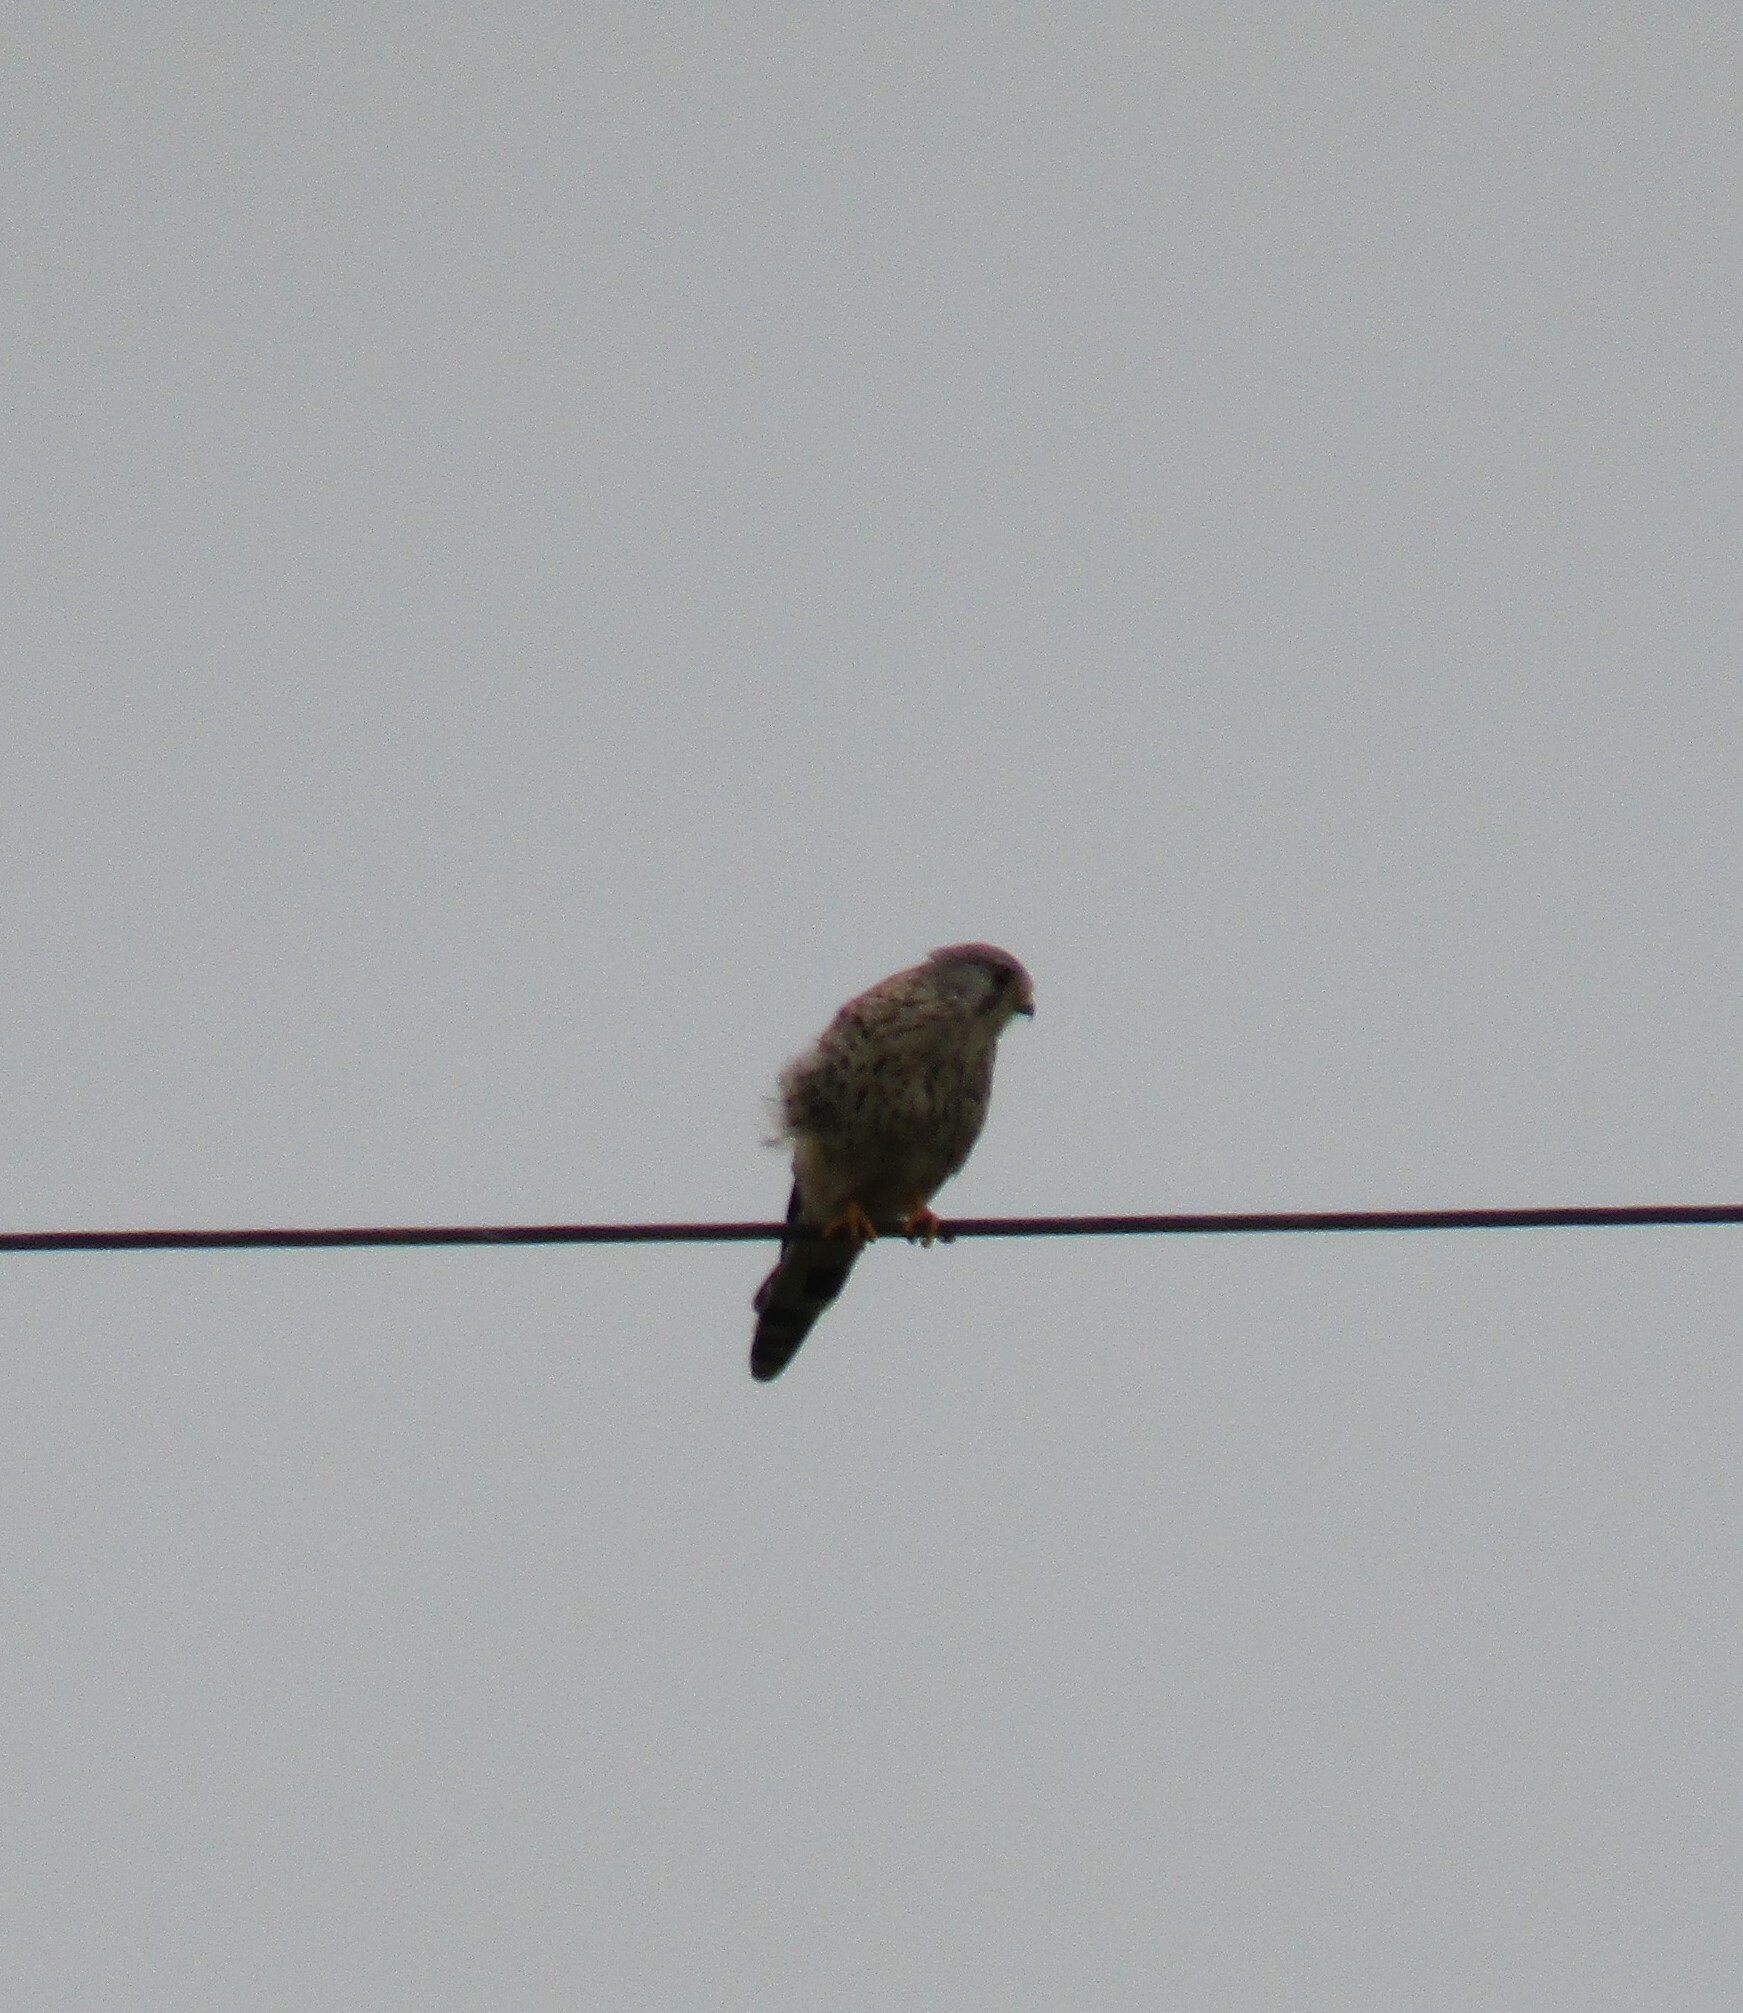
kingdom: Animalia
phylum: Chordata
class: Aves
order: Falconiformes
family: Falconidae
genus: Falco
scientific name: Falco tinnunculus
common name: Common kestrel
